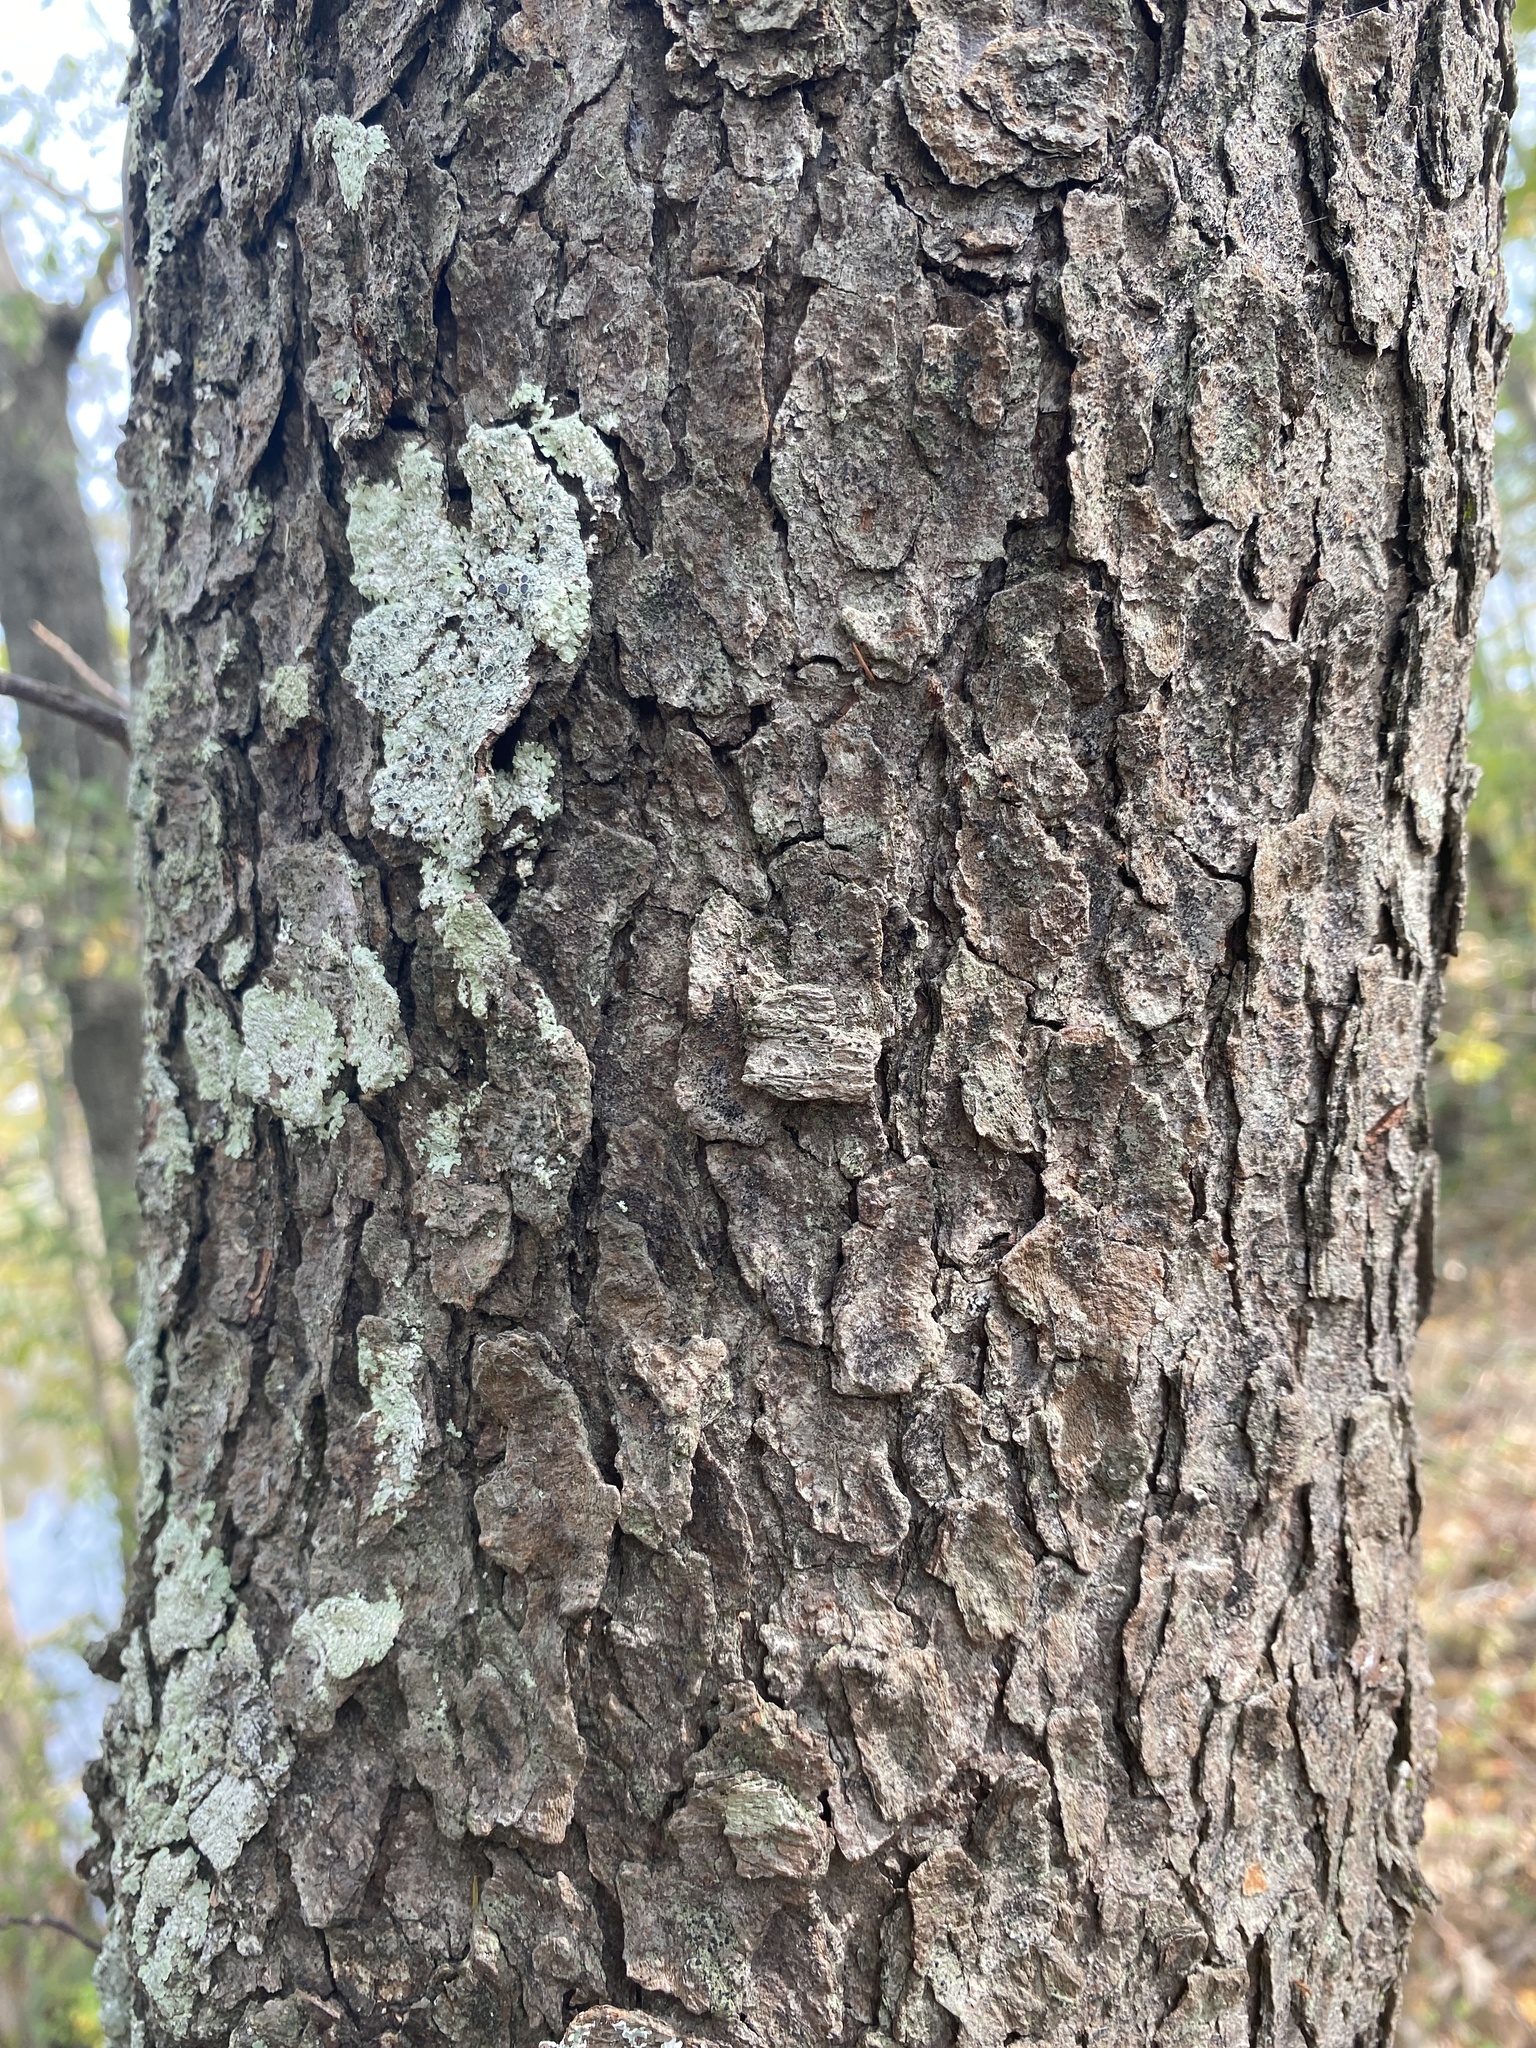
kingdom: Plantae
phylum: Tracheophyta
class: Magnoliopsida
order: Rosales
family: Rosaceae
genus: Prunus
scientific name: Prunus serotina
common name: Black cherry
